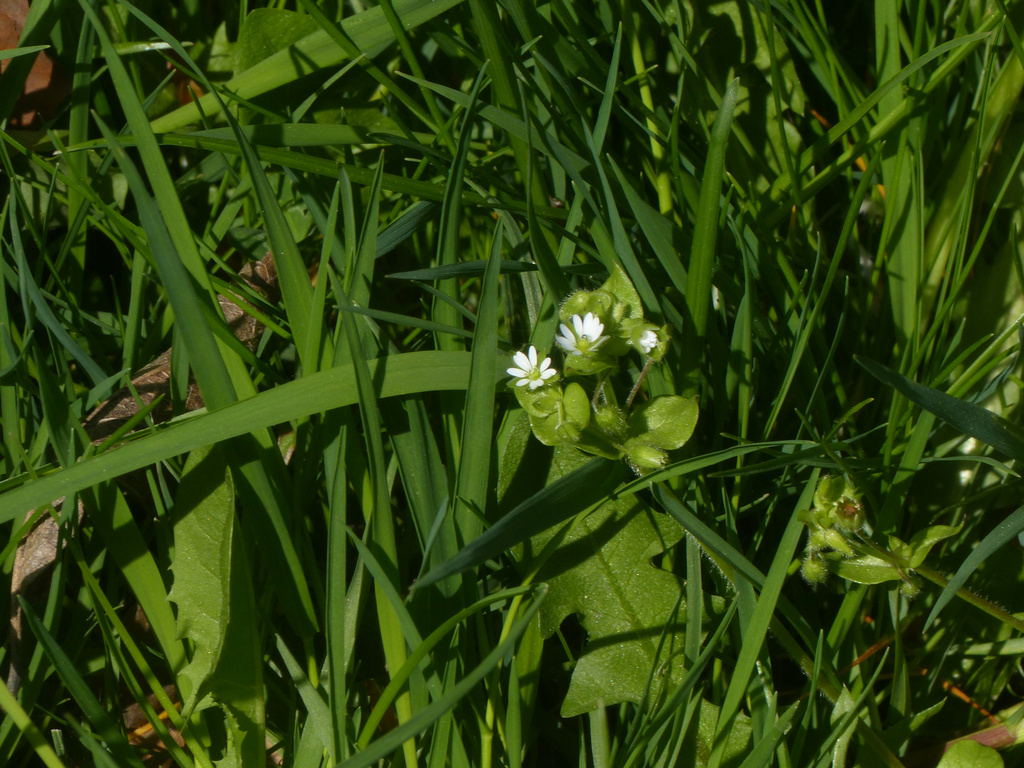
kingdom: Plantae
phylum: Tracheophyta
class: Magnoliopsida
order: Caryophyllales
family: Caryophyllaceae
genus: Stellaria
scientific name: Stellaria media
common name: Common chickweed
